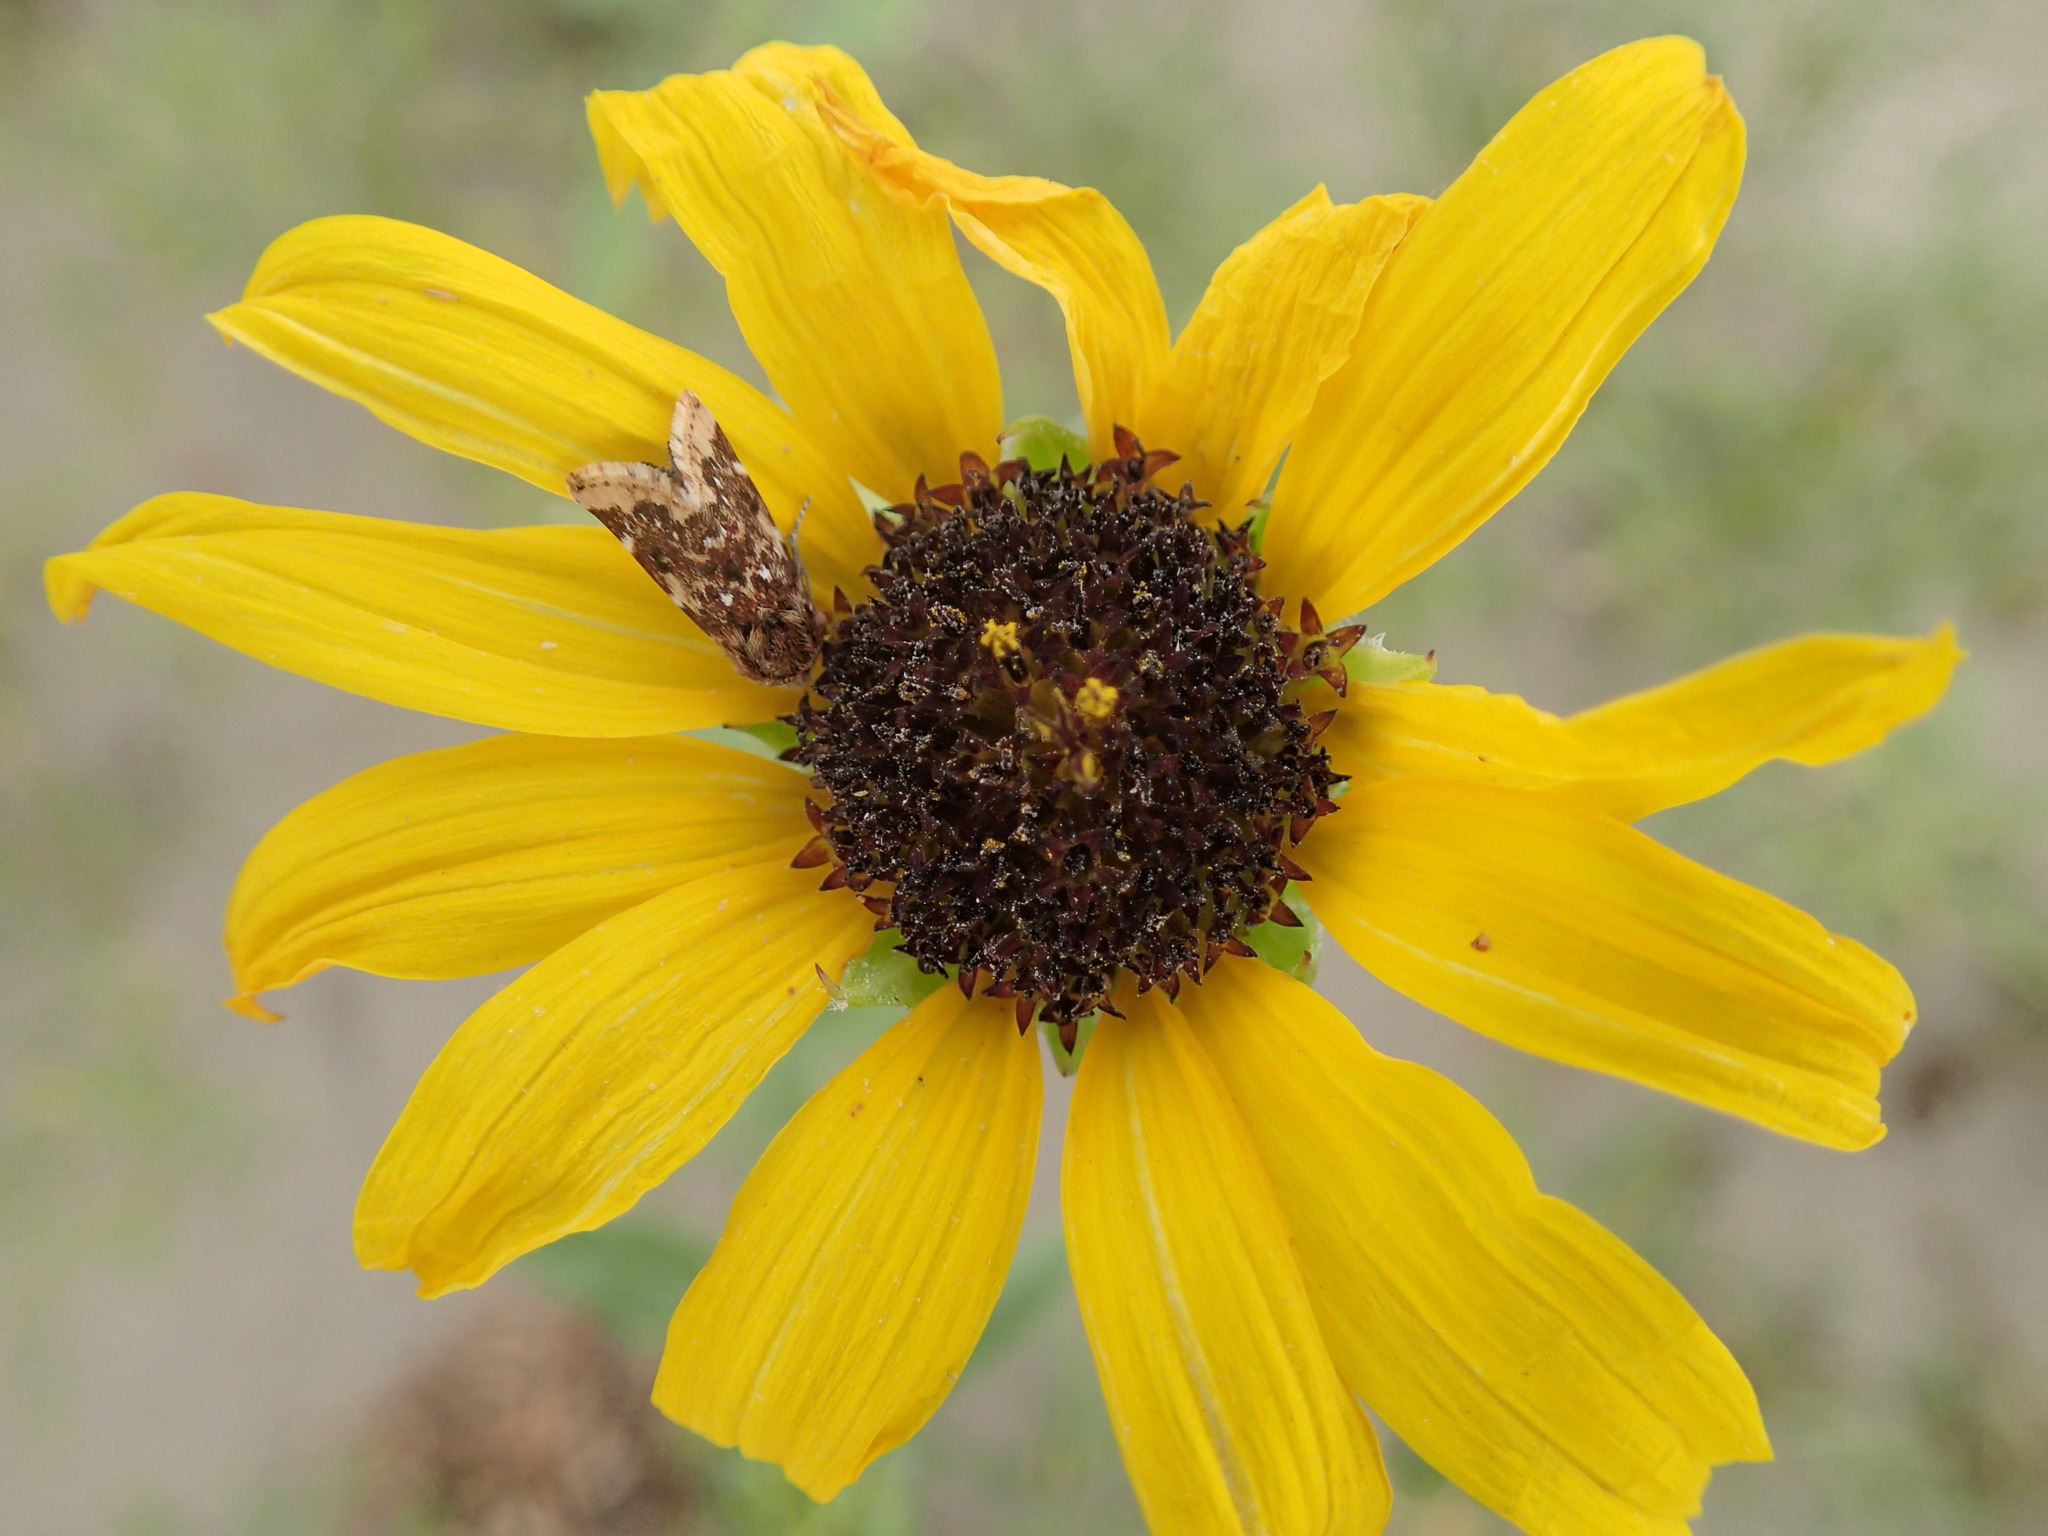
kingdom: Animalia
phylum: Arthropoda
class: Insecta
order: Lepidoptera
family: Noctuidae
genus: Schinia
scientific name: Schinia avemensis
